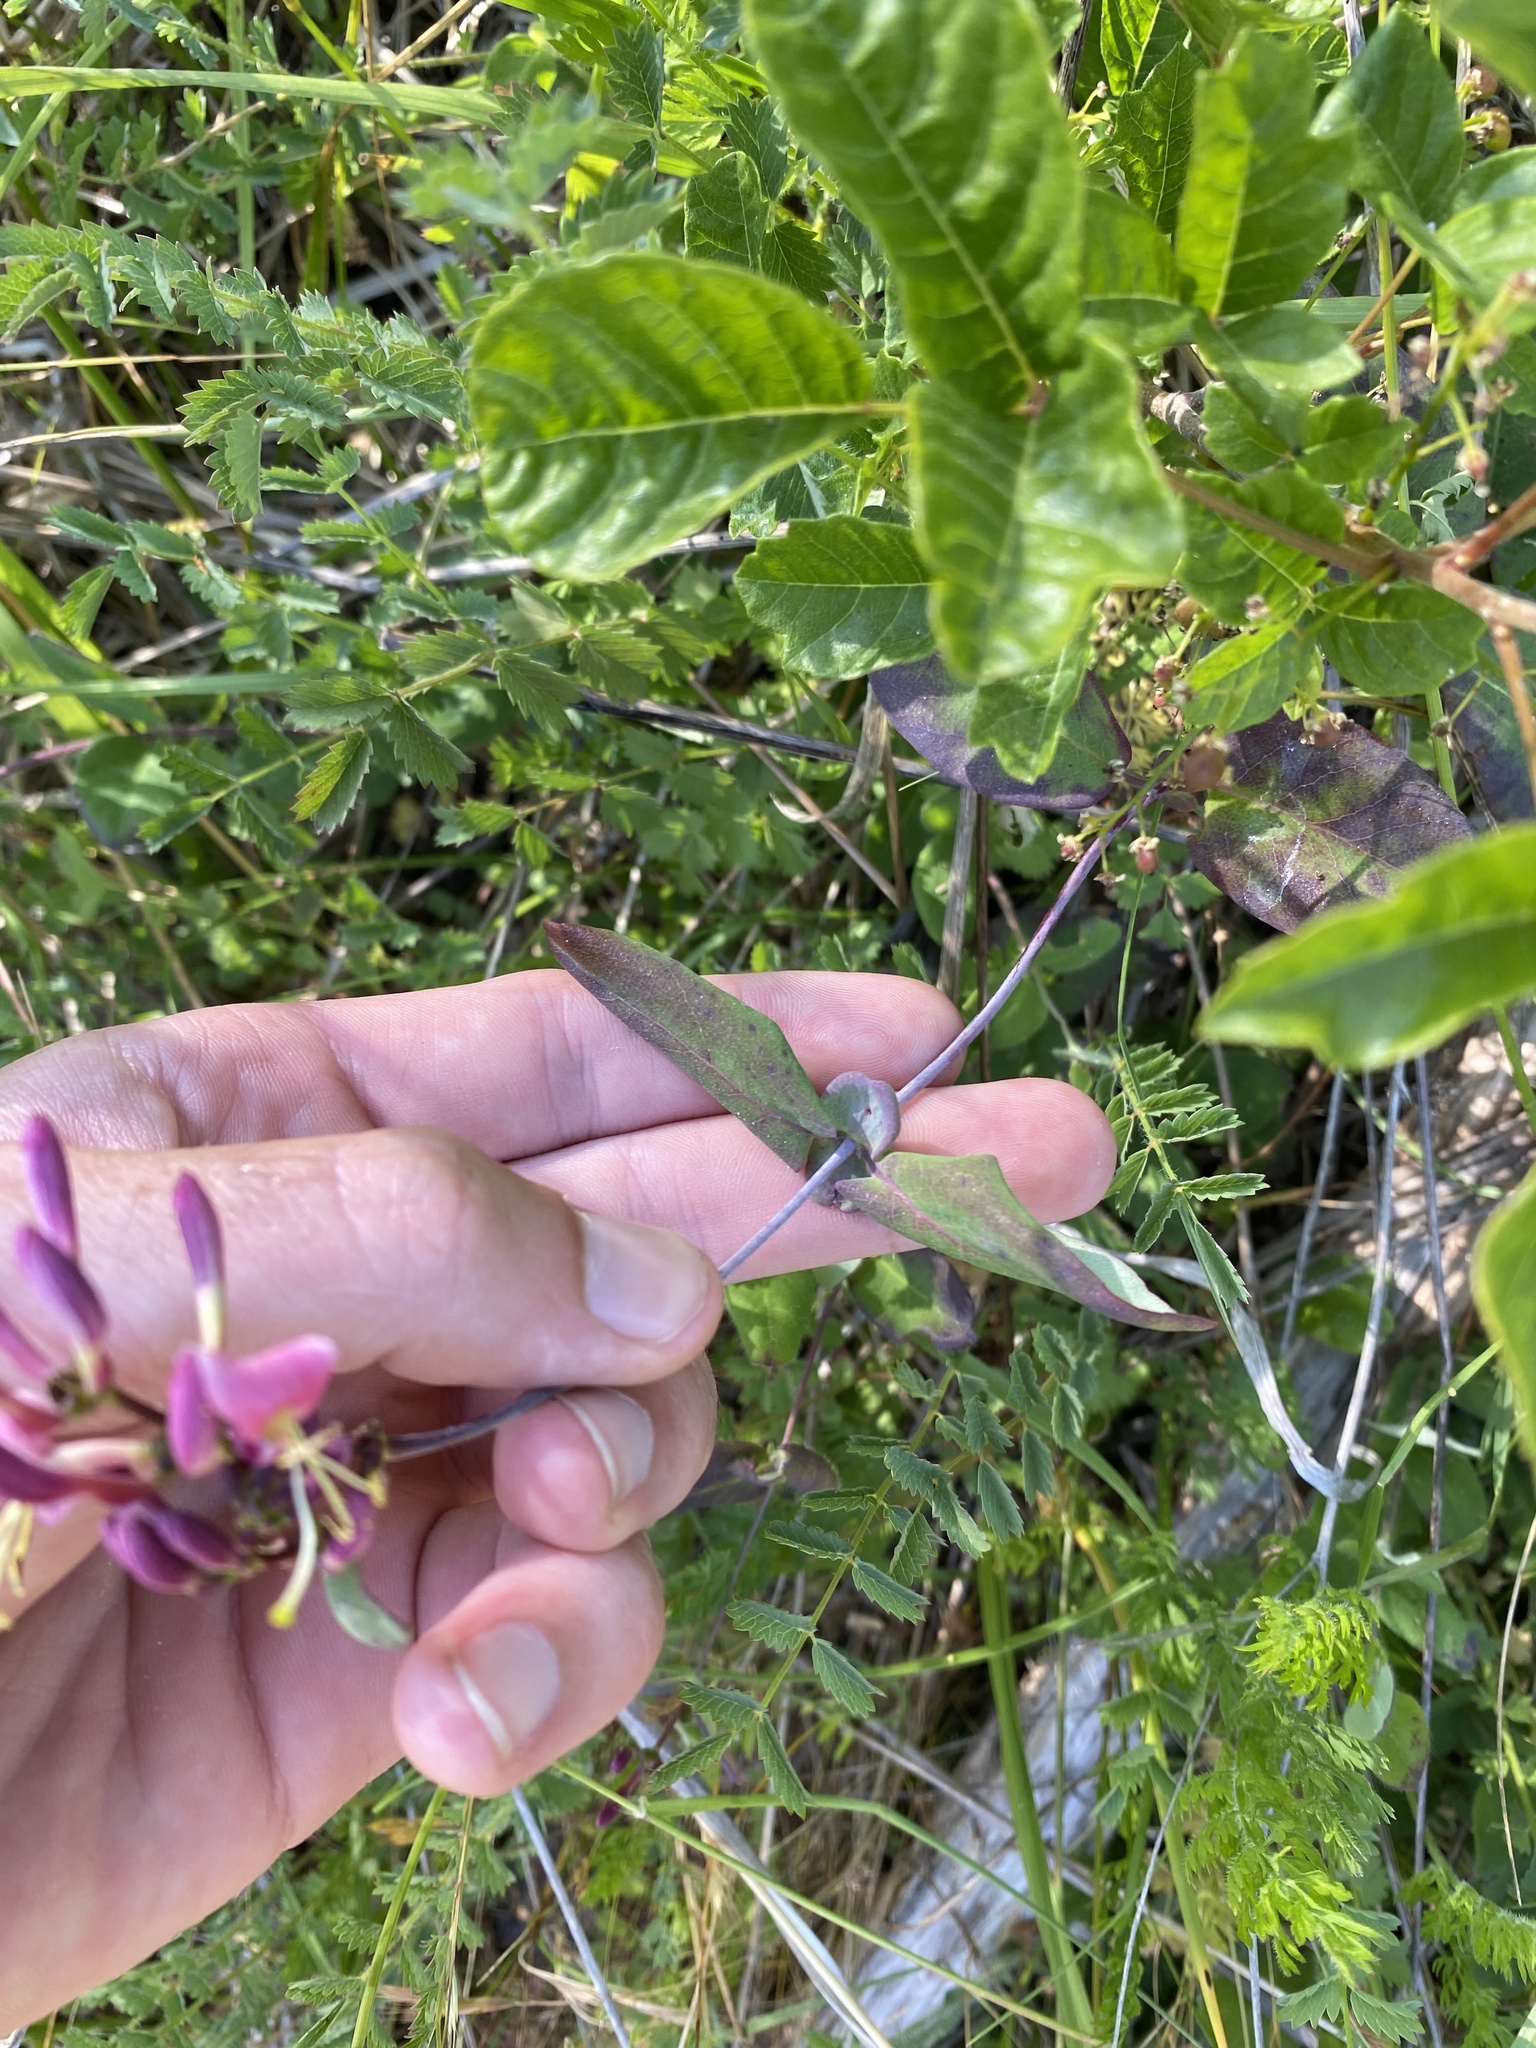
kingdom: Plantae
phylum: Tracheophyta
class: Magnoliopsida
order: Dipsacales
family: Caprifoliaceae
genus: Lonicera
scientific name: Lonicera hispidula
